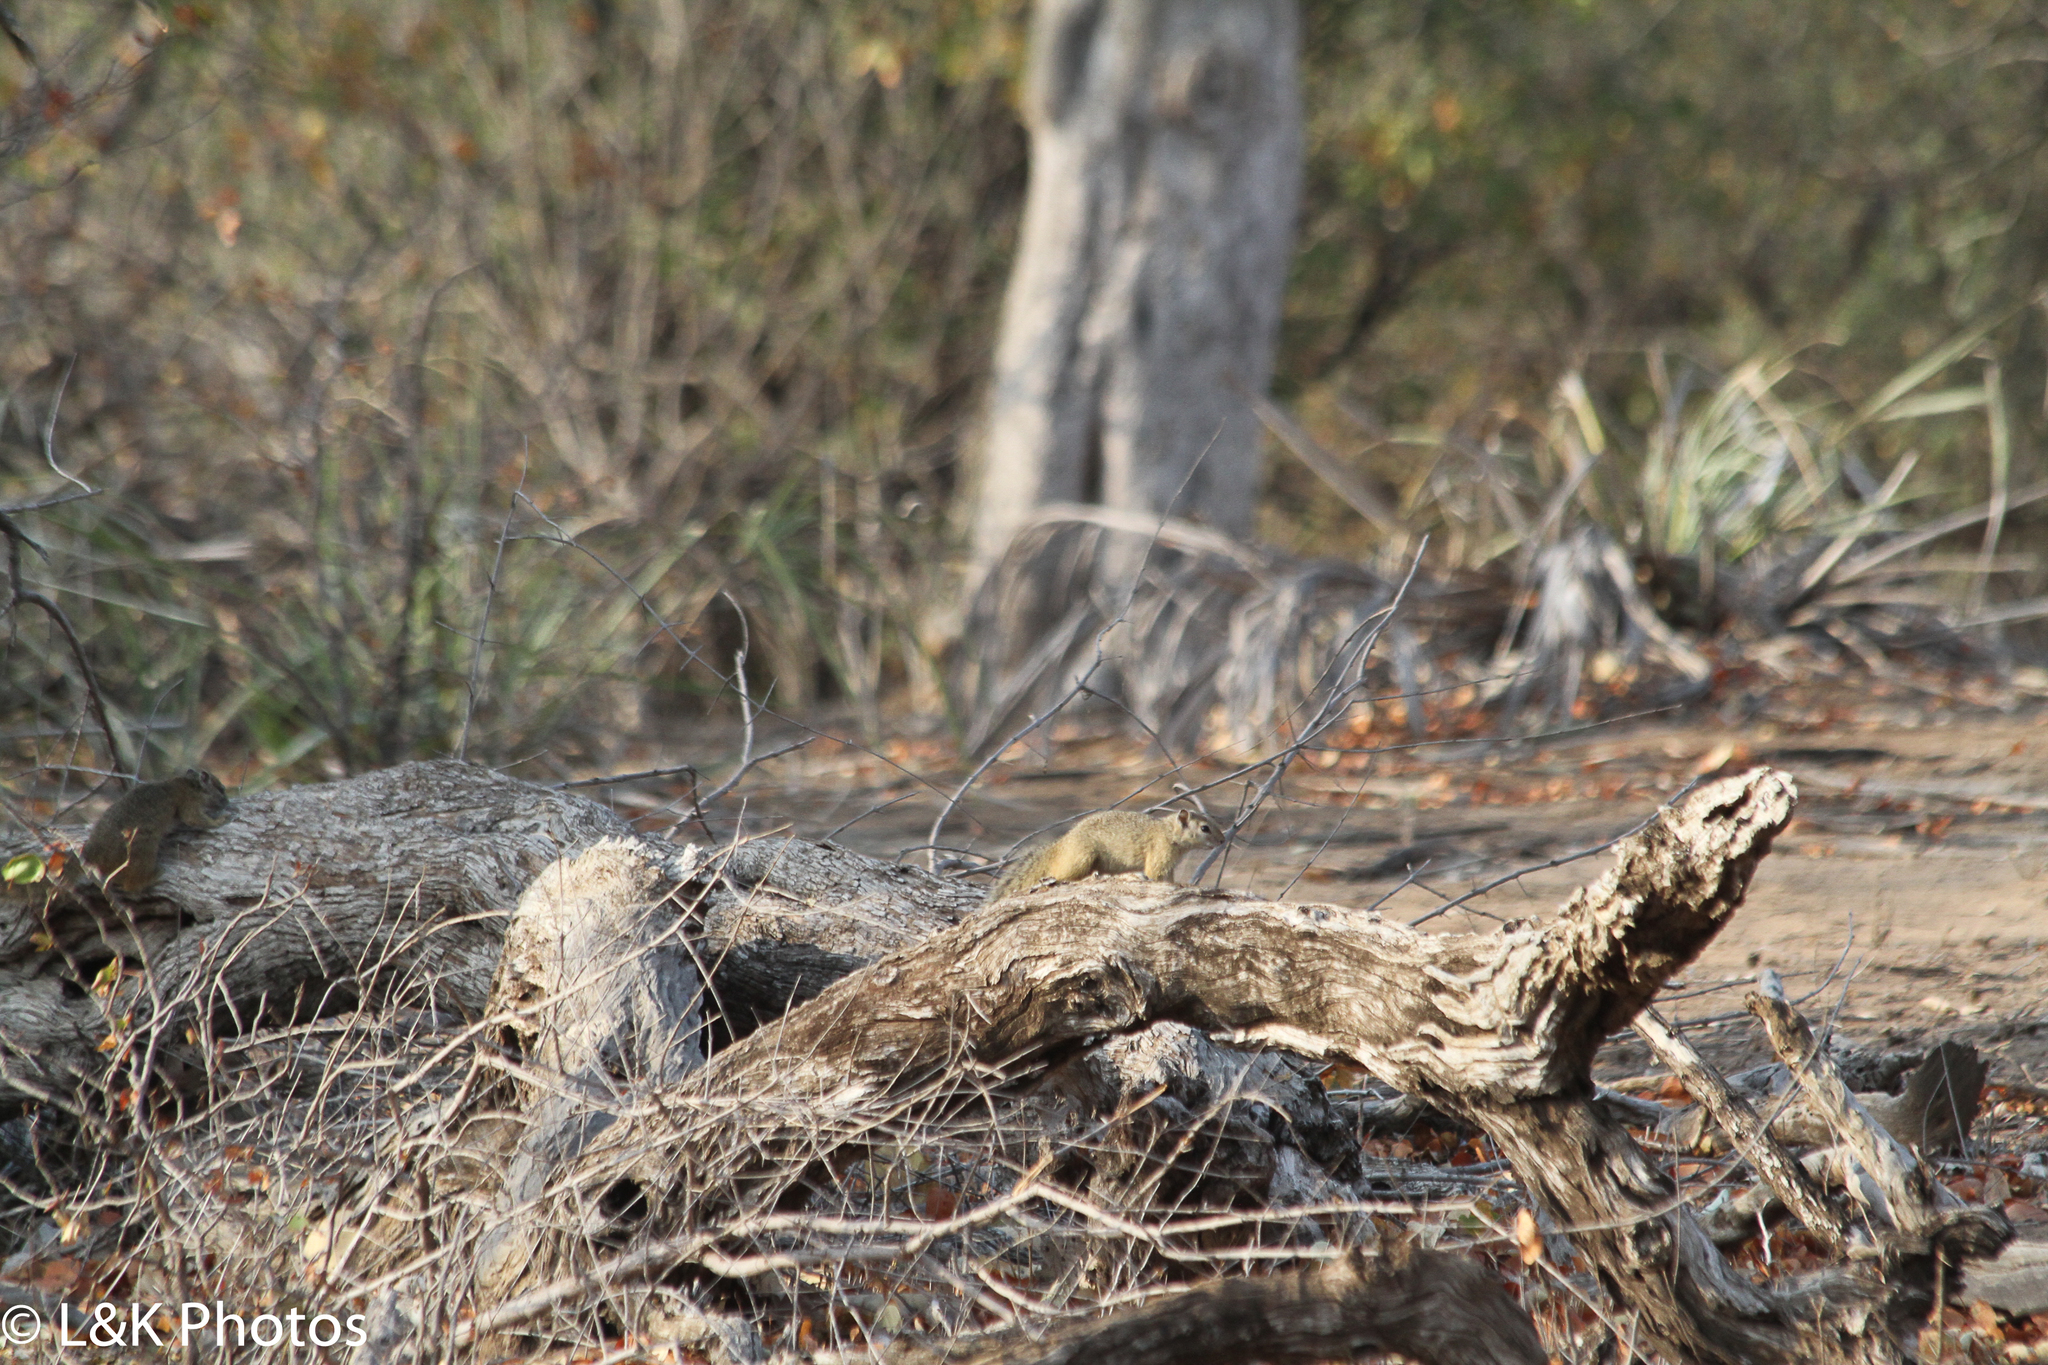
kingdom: Animalia
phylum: Chordata
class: Mammalia
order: Rodentia
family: Sciuridae
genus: Paraxerus
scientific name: Paraxerus cepapi
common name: Smith's bush squirrel
